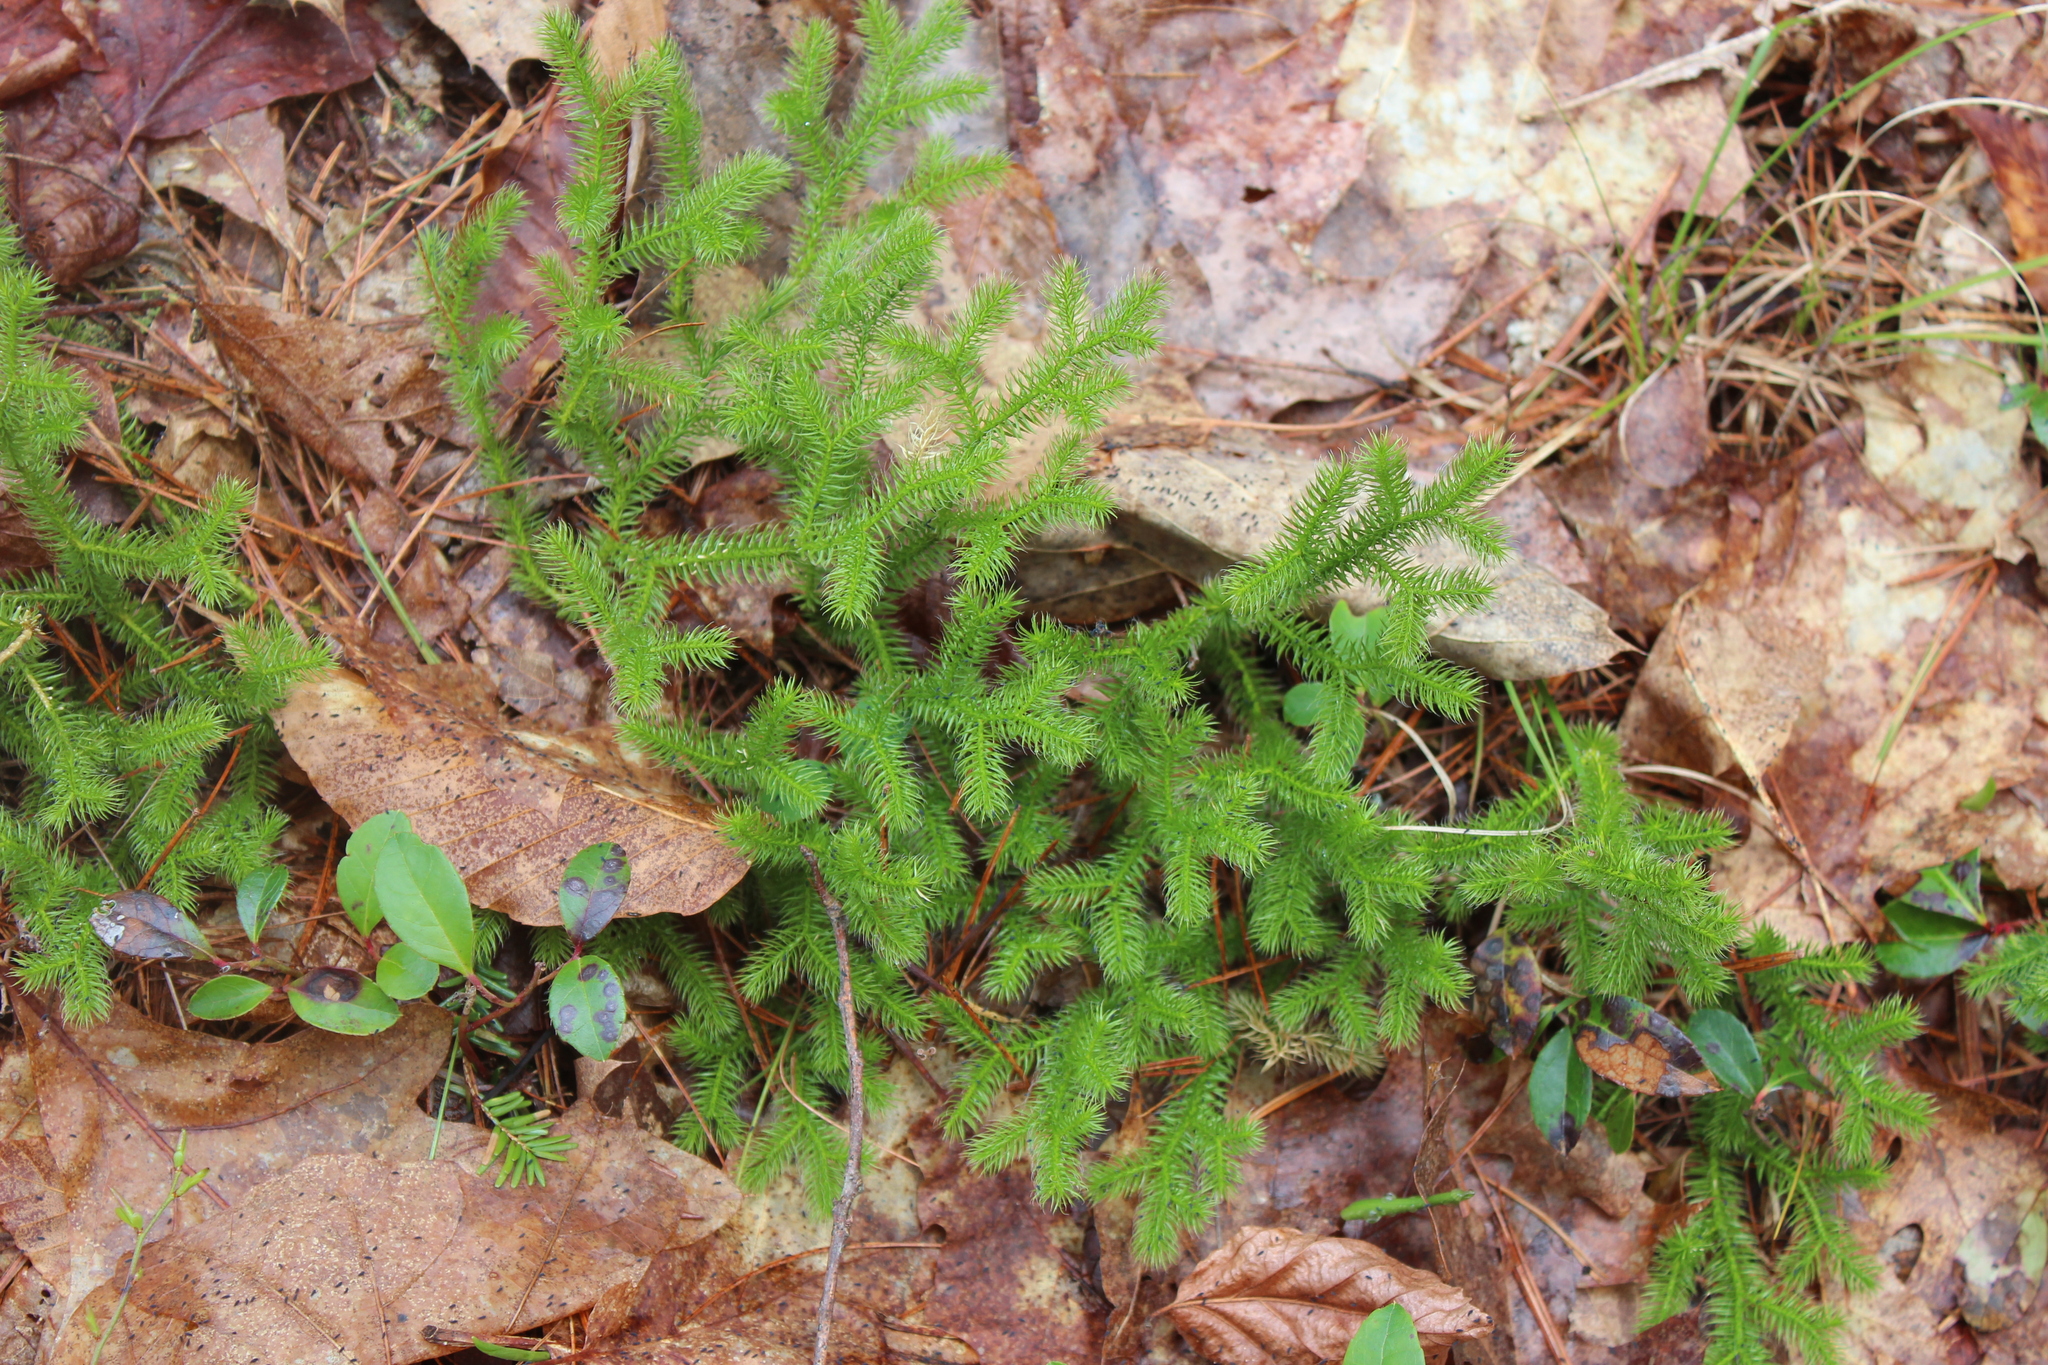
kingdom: Plantae
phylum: Tracheophyta
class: Lycopodiopsida
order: Lycopodiales
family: Lycopodiaceae
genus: Lycopodium
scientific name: Lycopodium clavatum
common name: Stag's-horn clubmoss
